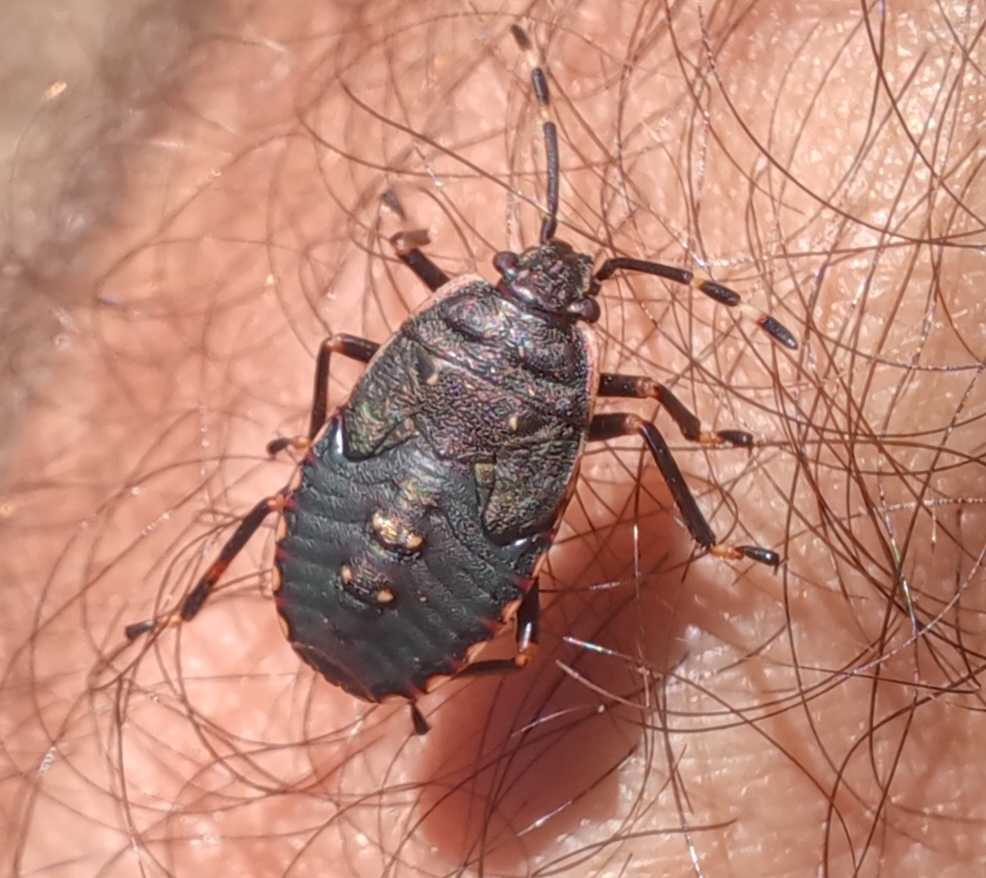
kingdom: Animalia
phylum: Arthropoda
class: Insecta
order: Hemiptera
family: Pentatomidae
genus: Notius
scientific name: Notius
